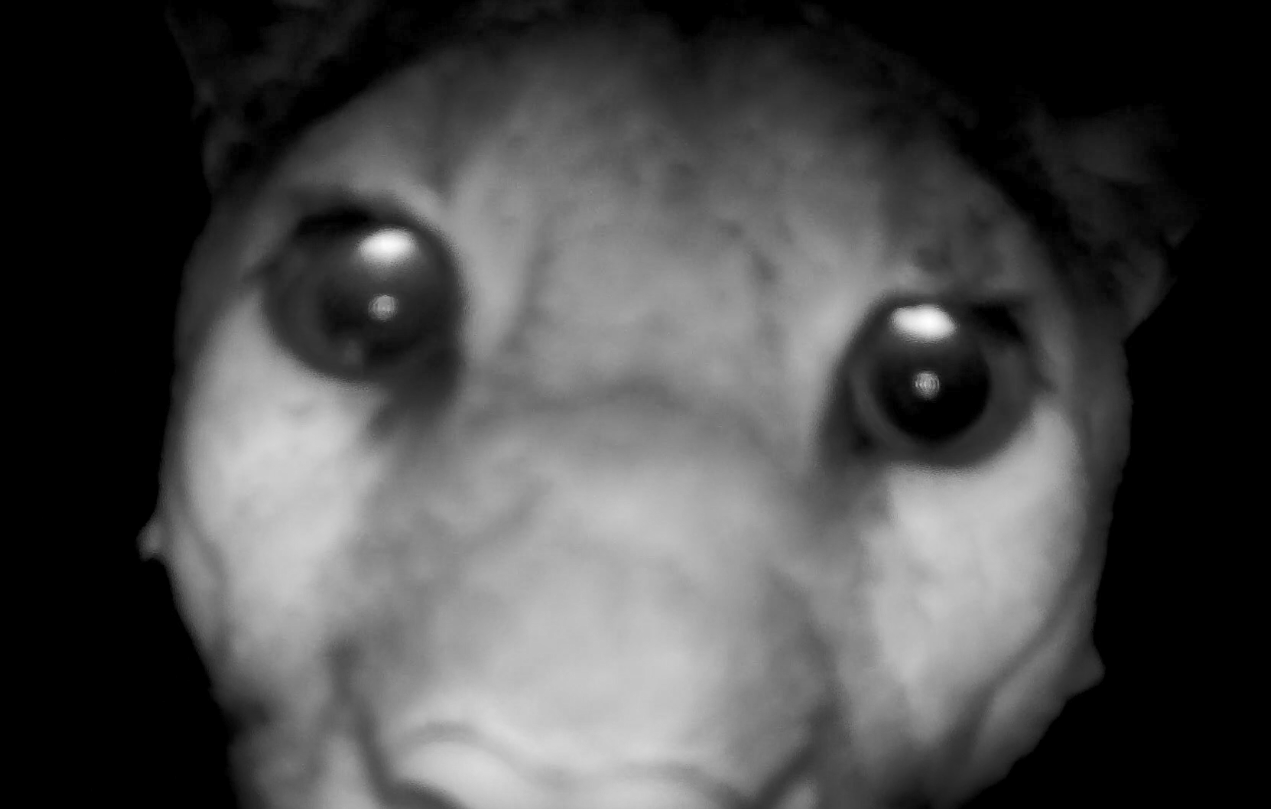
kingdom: Animalia
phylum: Chordata
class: Mammalia
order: Carnivora
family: Felidae
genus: Puma
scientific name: Puma concolor
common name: Puma
